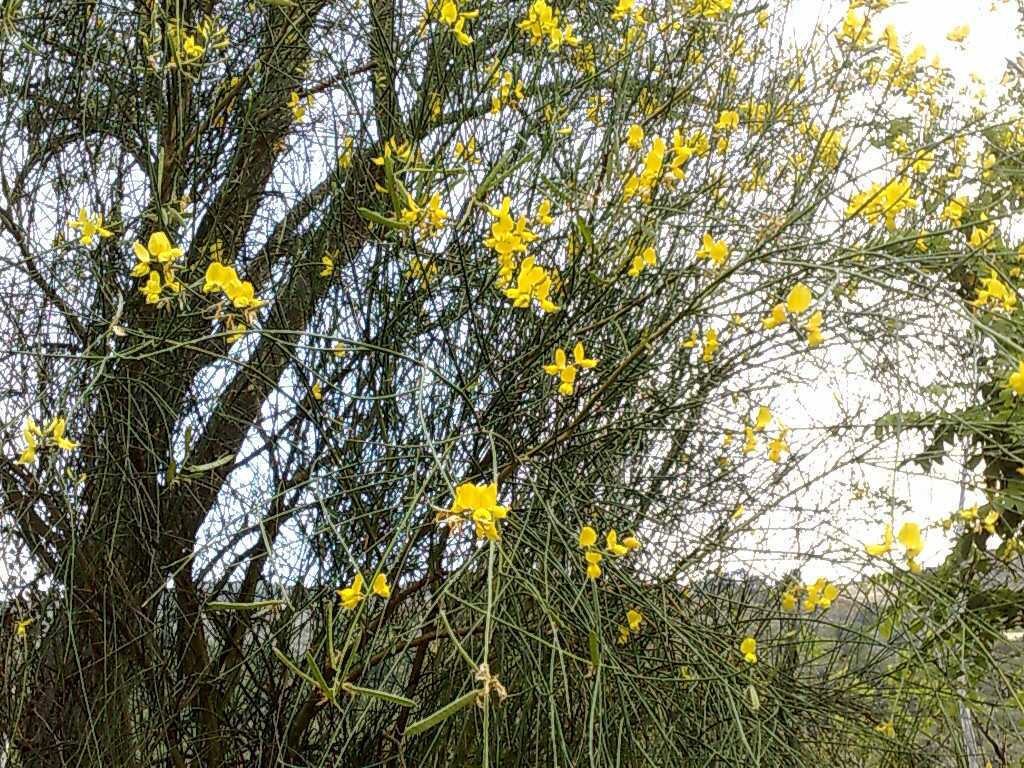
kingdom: Plantae
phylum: Tracheophyta
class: Magnoliopsida
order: Fabales
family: Fabaceae
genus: Spartium
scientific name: Spartium junceum
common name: Spanish broom
